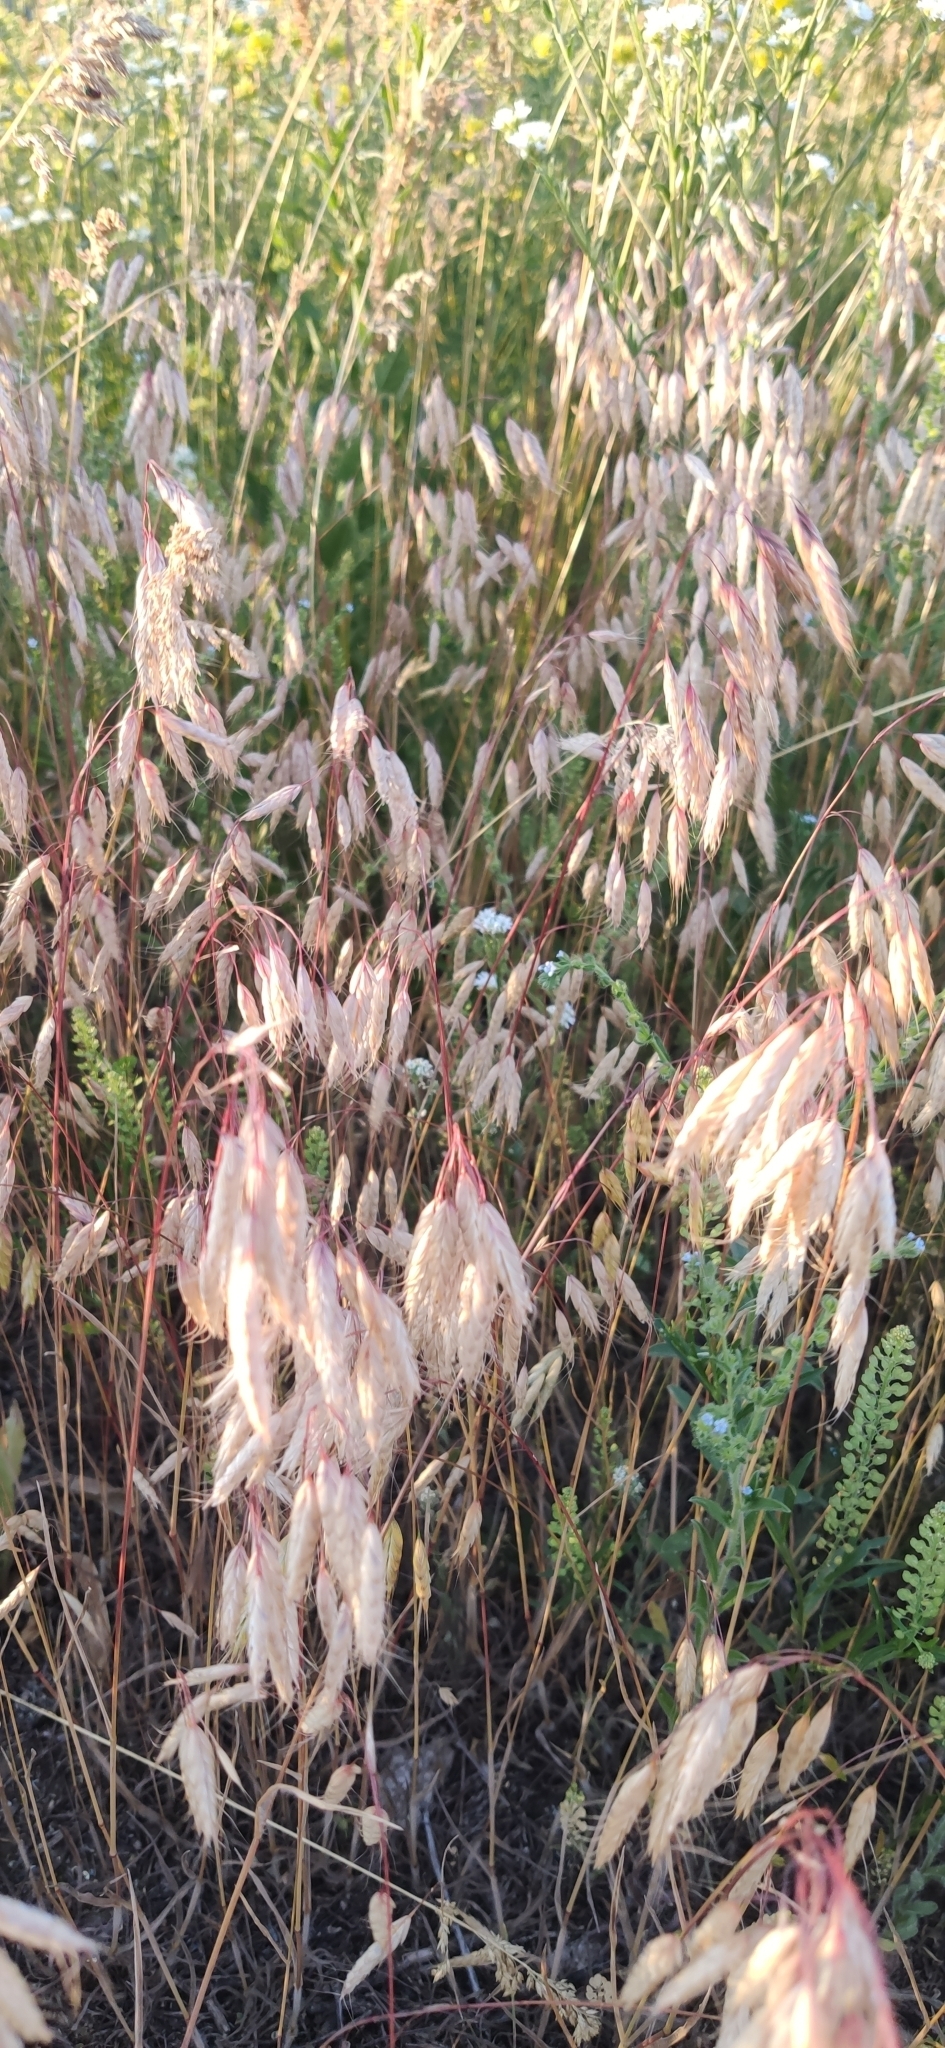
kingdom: Plantae
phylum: Tracheophyta
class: Liliopsida
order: Poales
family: Poaceae
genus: Bromus
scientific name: Bromus squarrosus
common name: Corn brome
